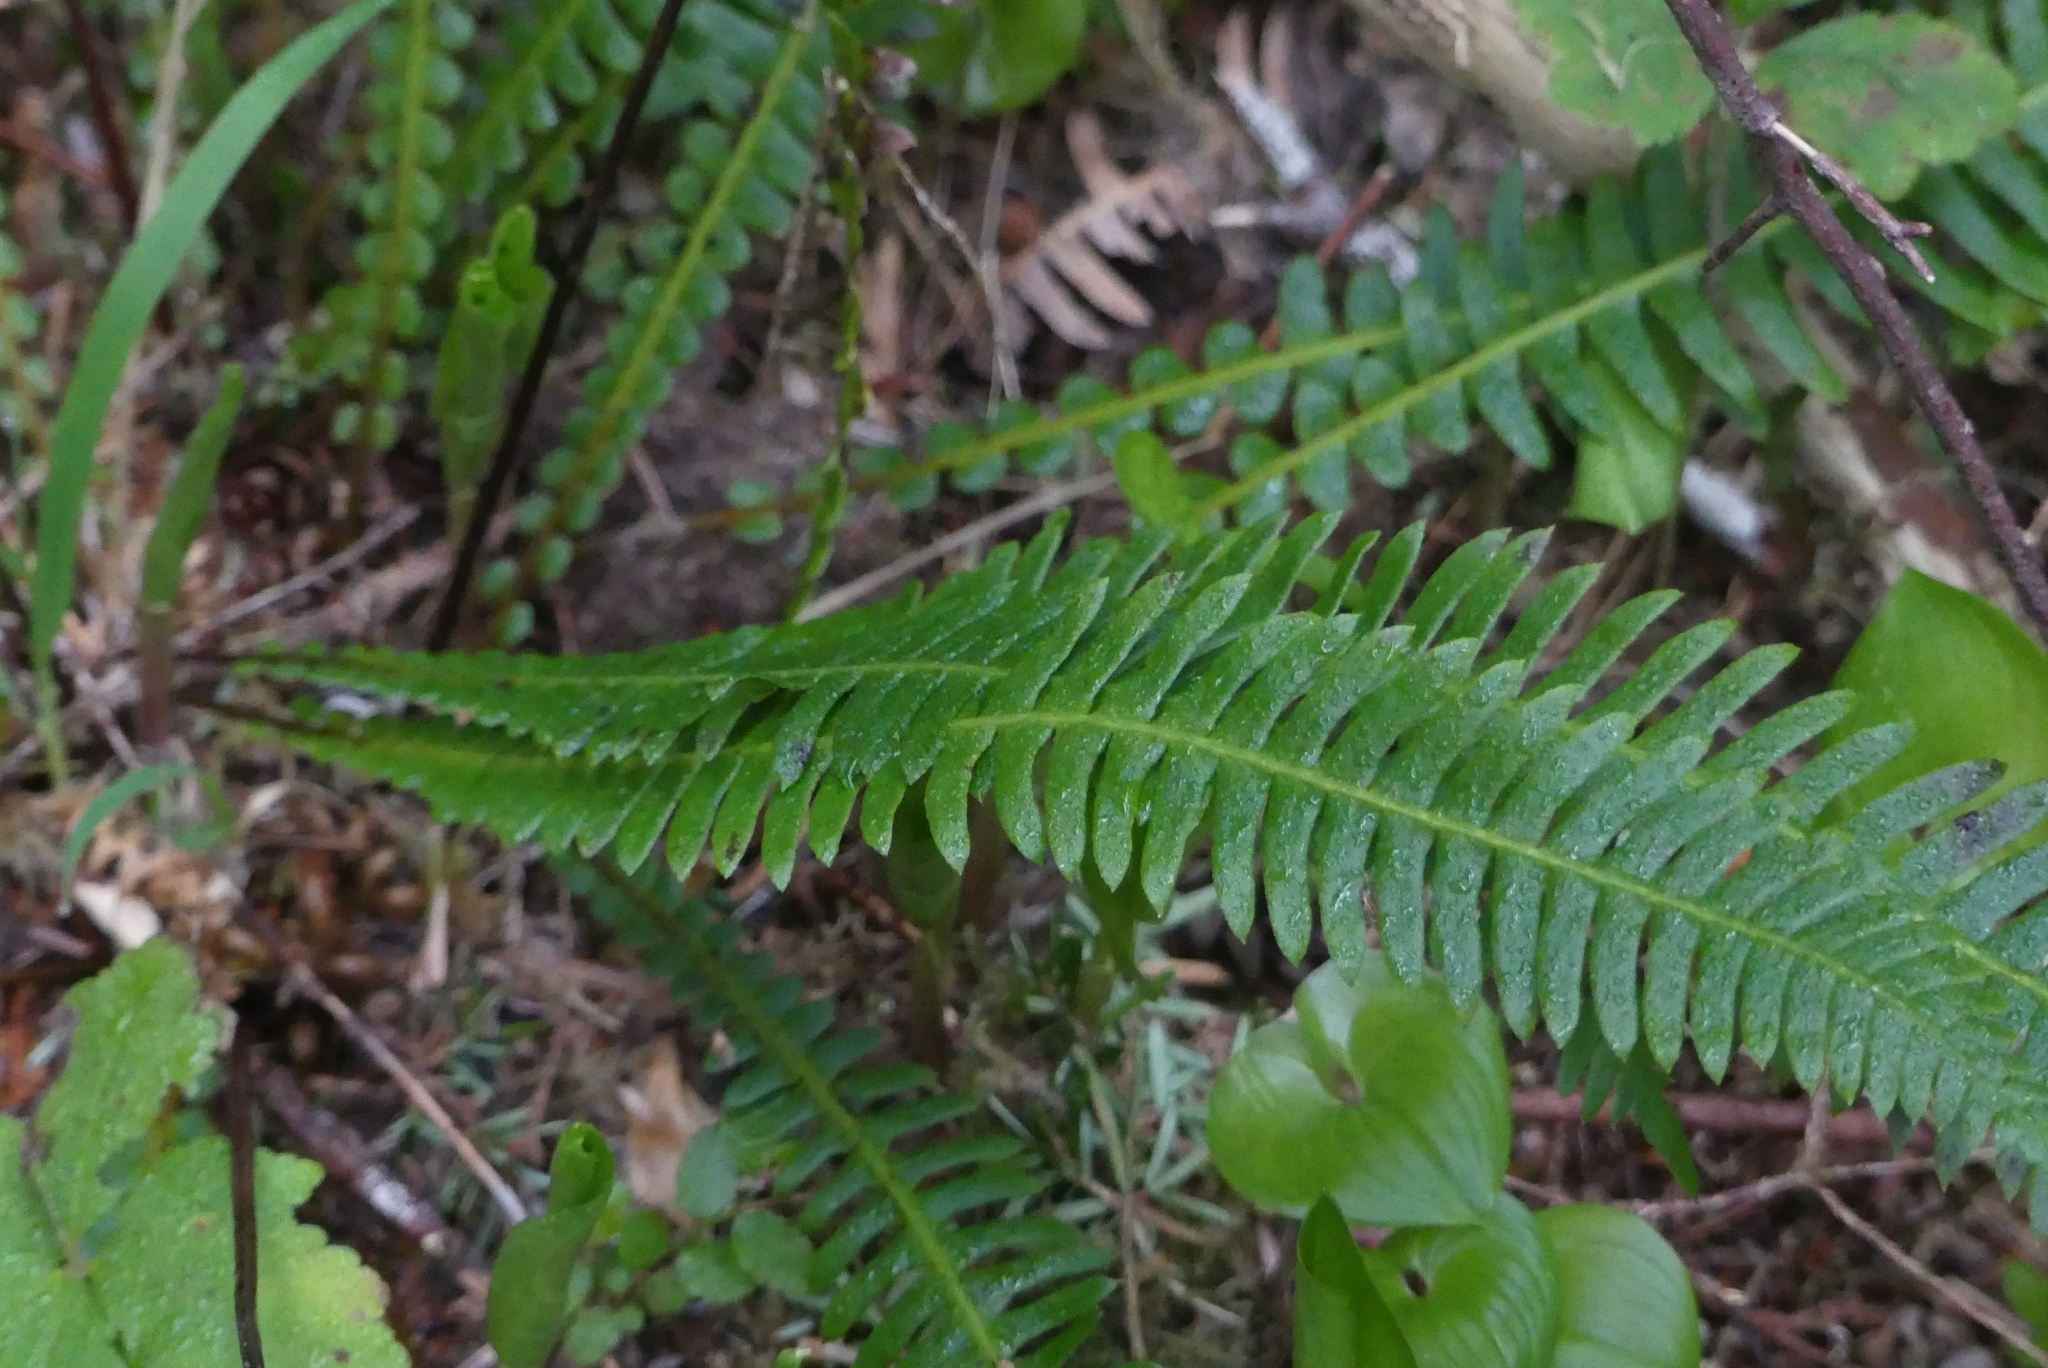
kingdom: Plantae
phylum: Tracheophyta
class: Polypodiopsida
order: Polypodiales
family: Blechnaceae
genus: Struthiopteris
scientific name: Struthiopteris spicant
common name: Deer fern
